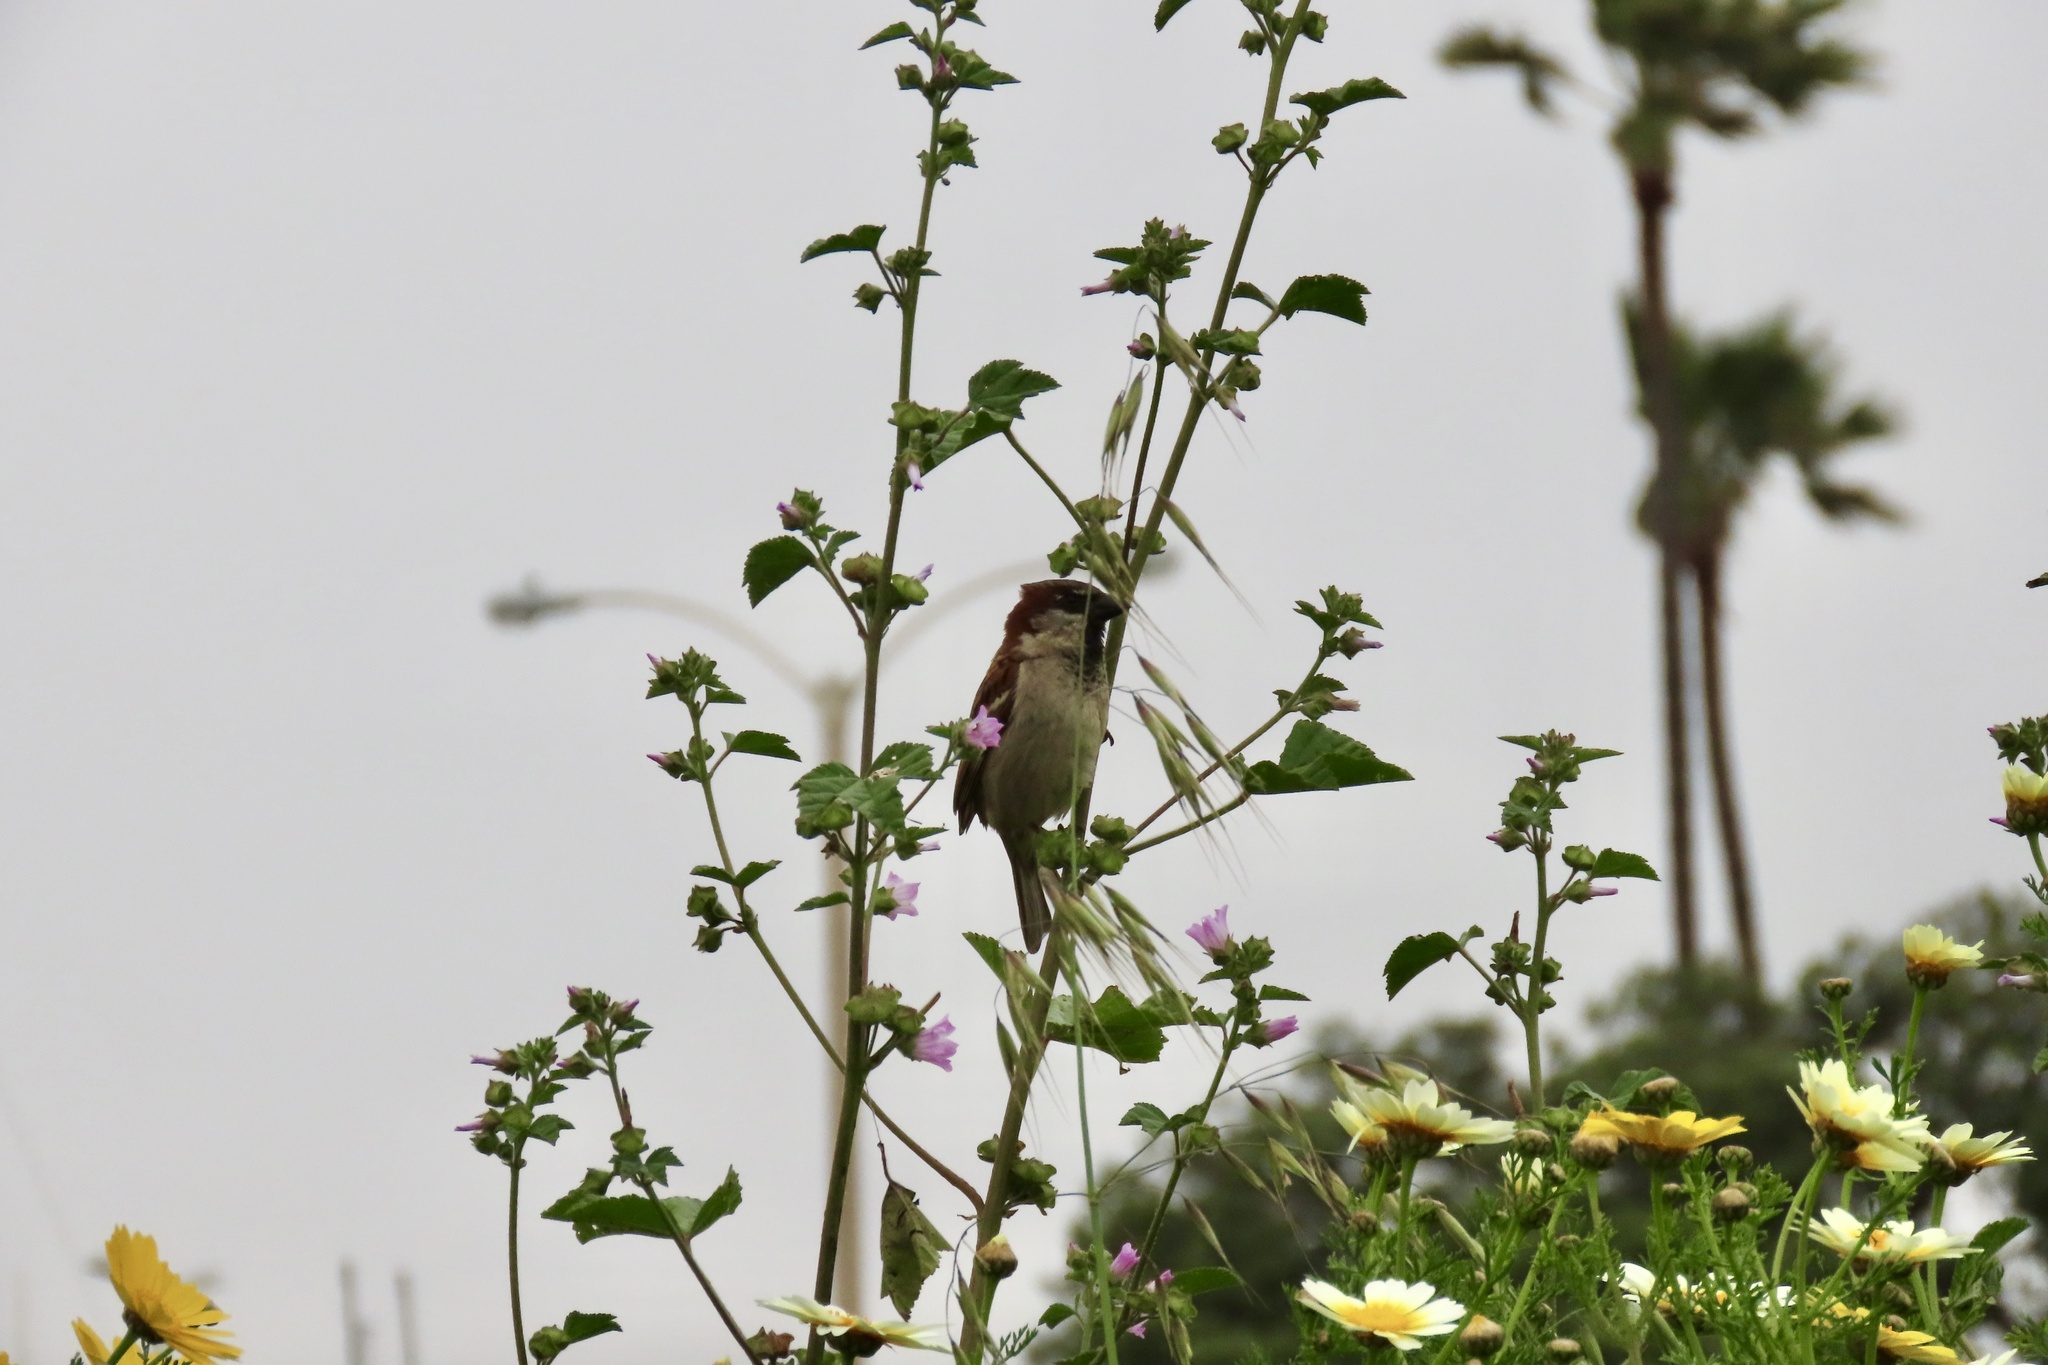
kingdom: Animalia
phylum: Chordata
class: Aves
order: Passeriformes
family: Passeridae
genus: Passer
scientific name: Passer domesticus
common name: House sparrow
